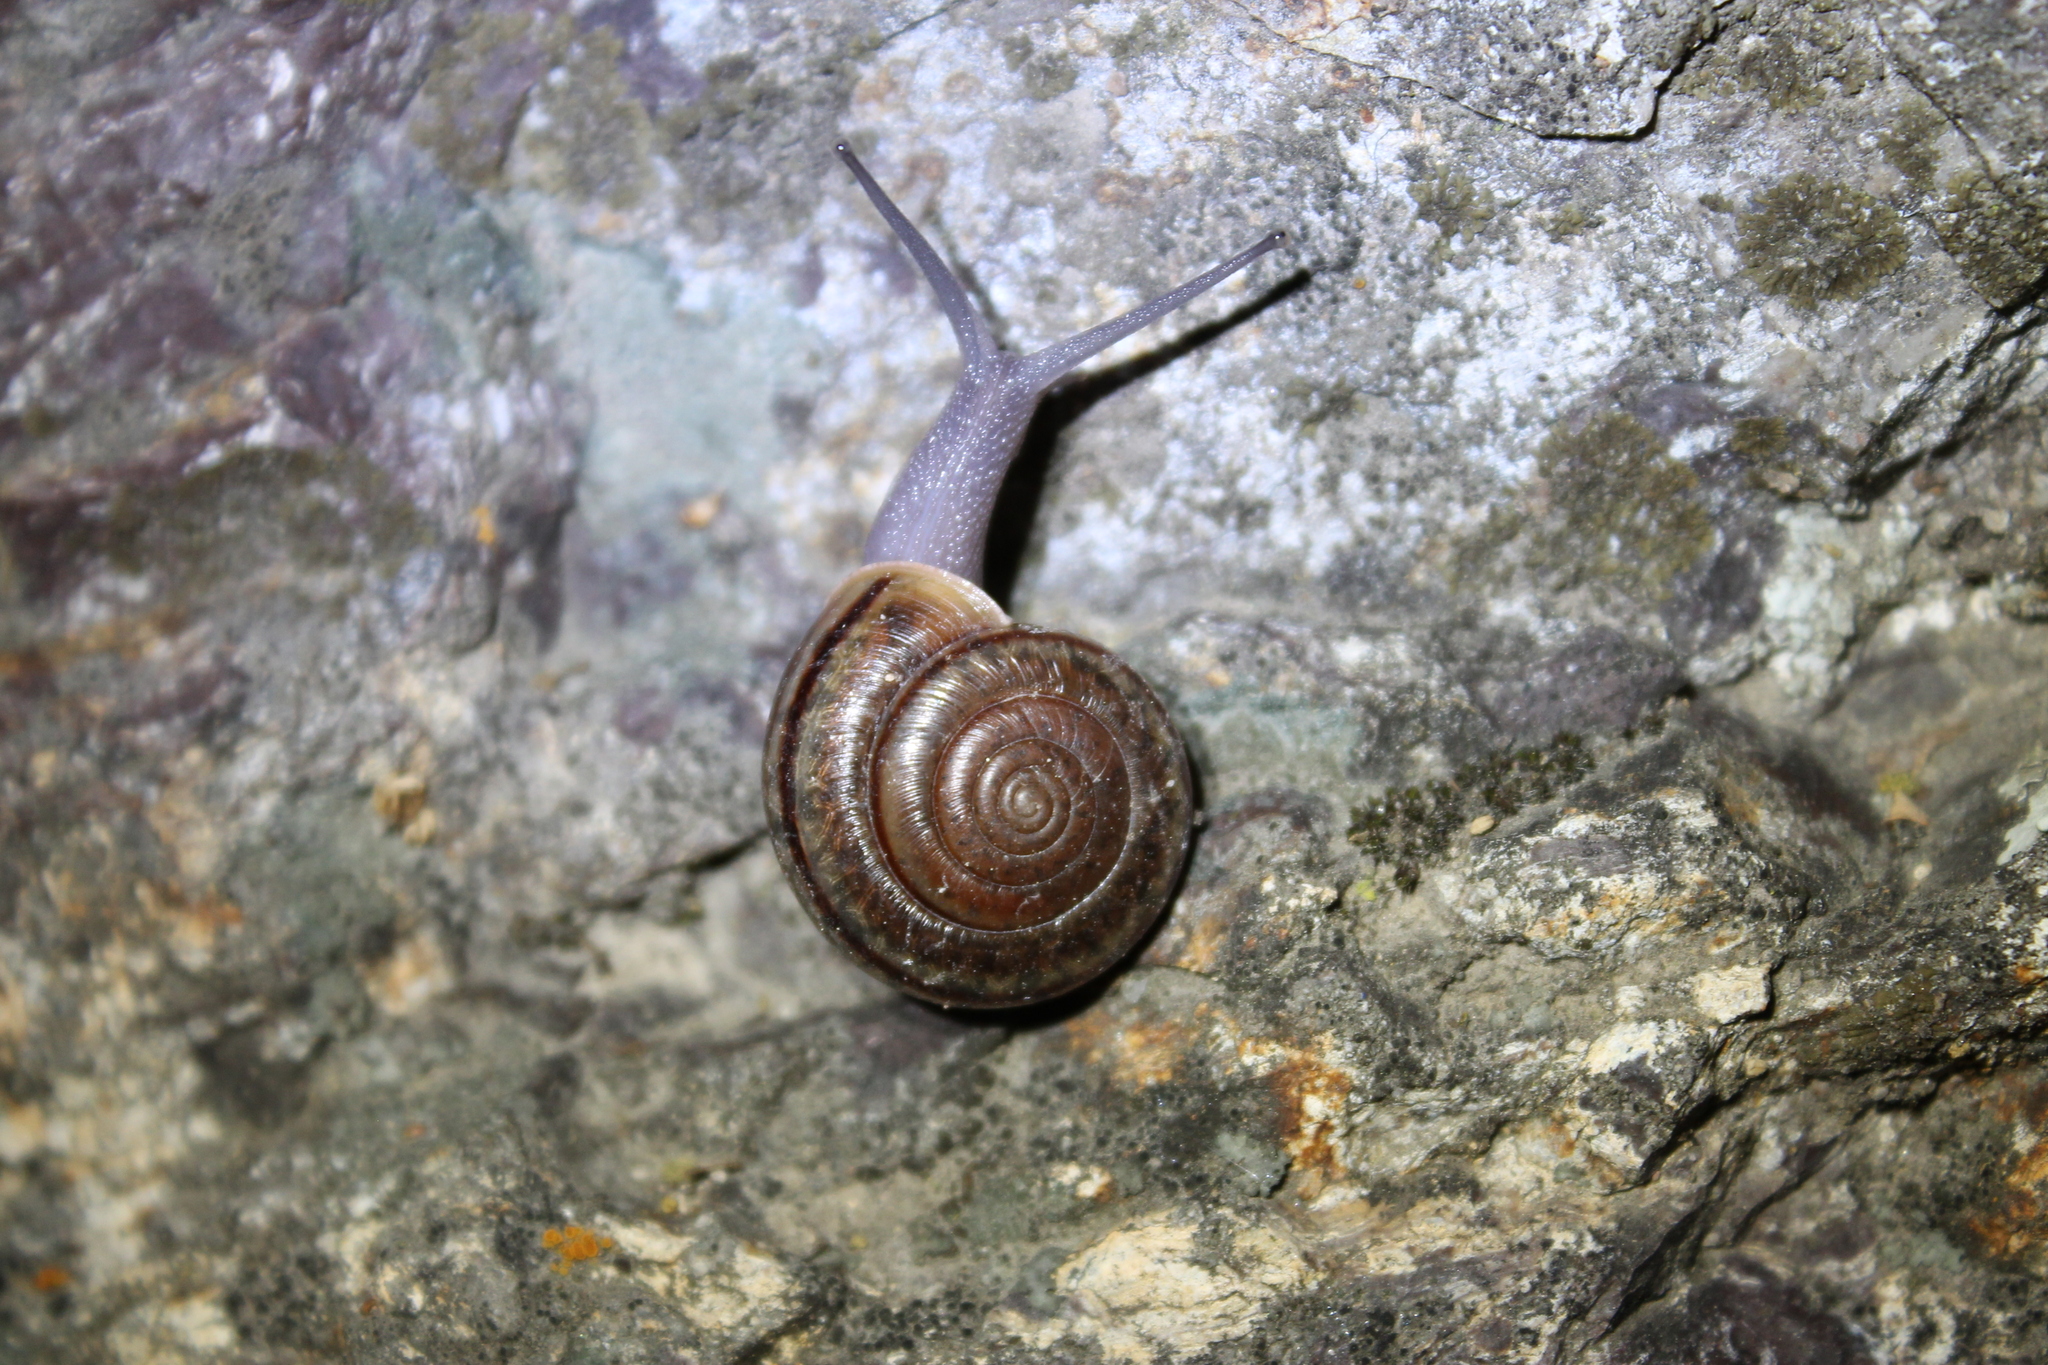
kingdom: Animalia
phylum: Mollusca
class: Gastropoda
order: Stylommatophora
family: Xanthonychidae
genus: Helminthoglypta
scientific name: Helminthoglypta benitoensis
